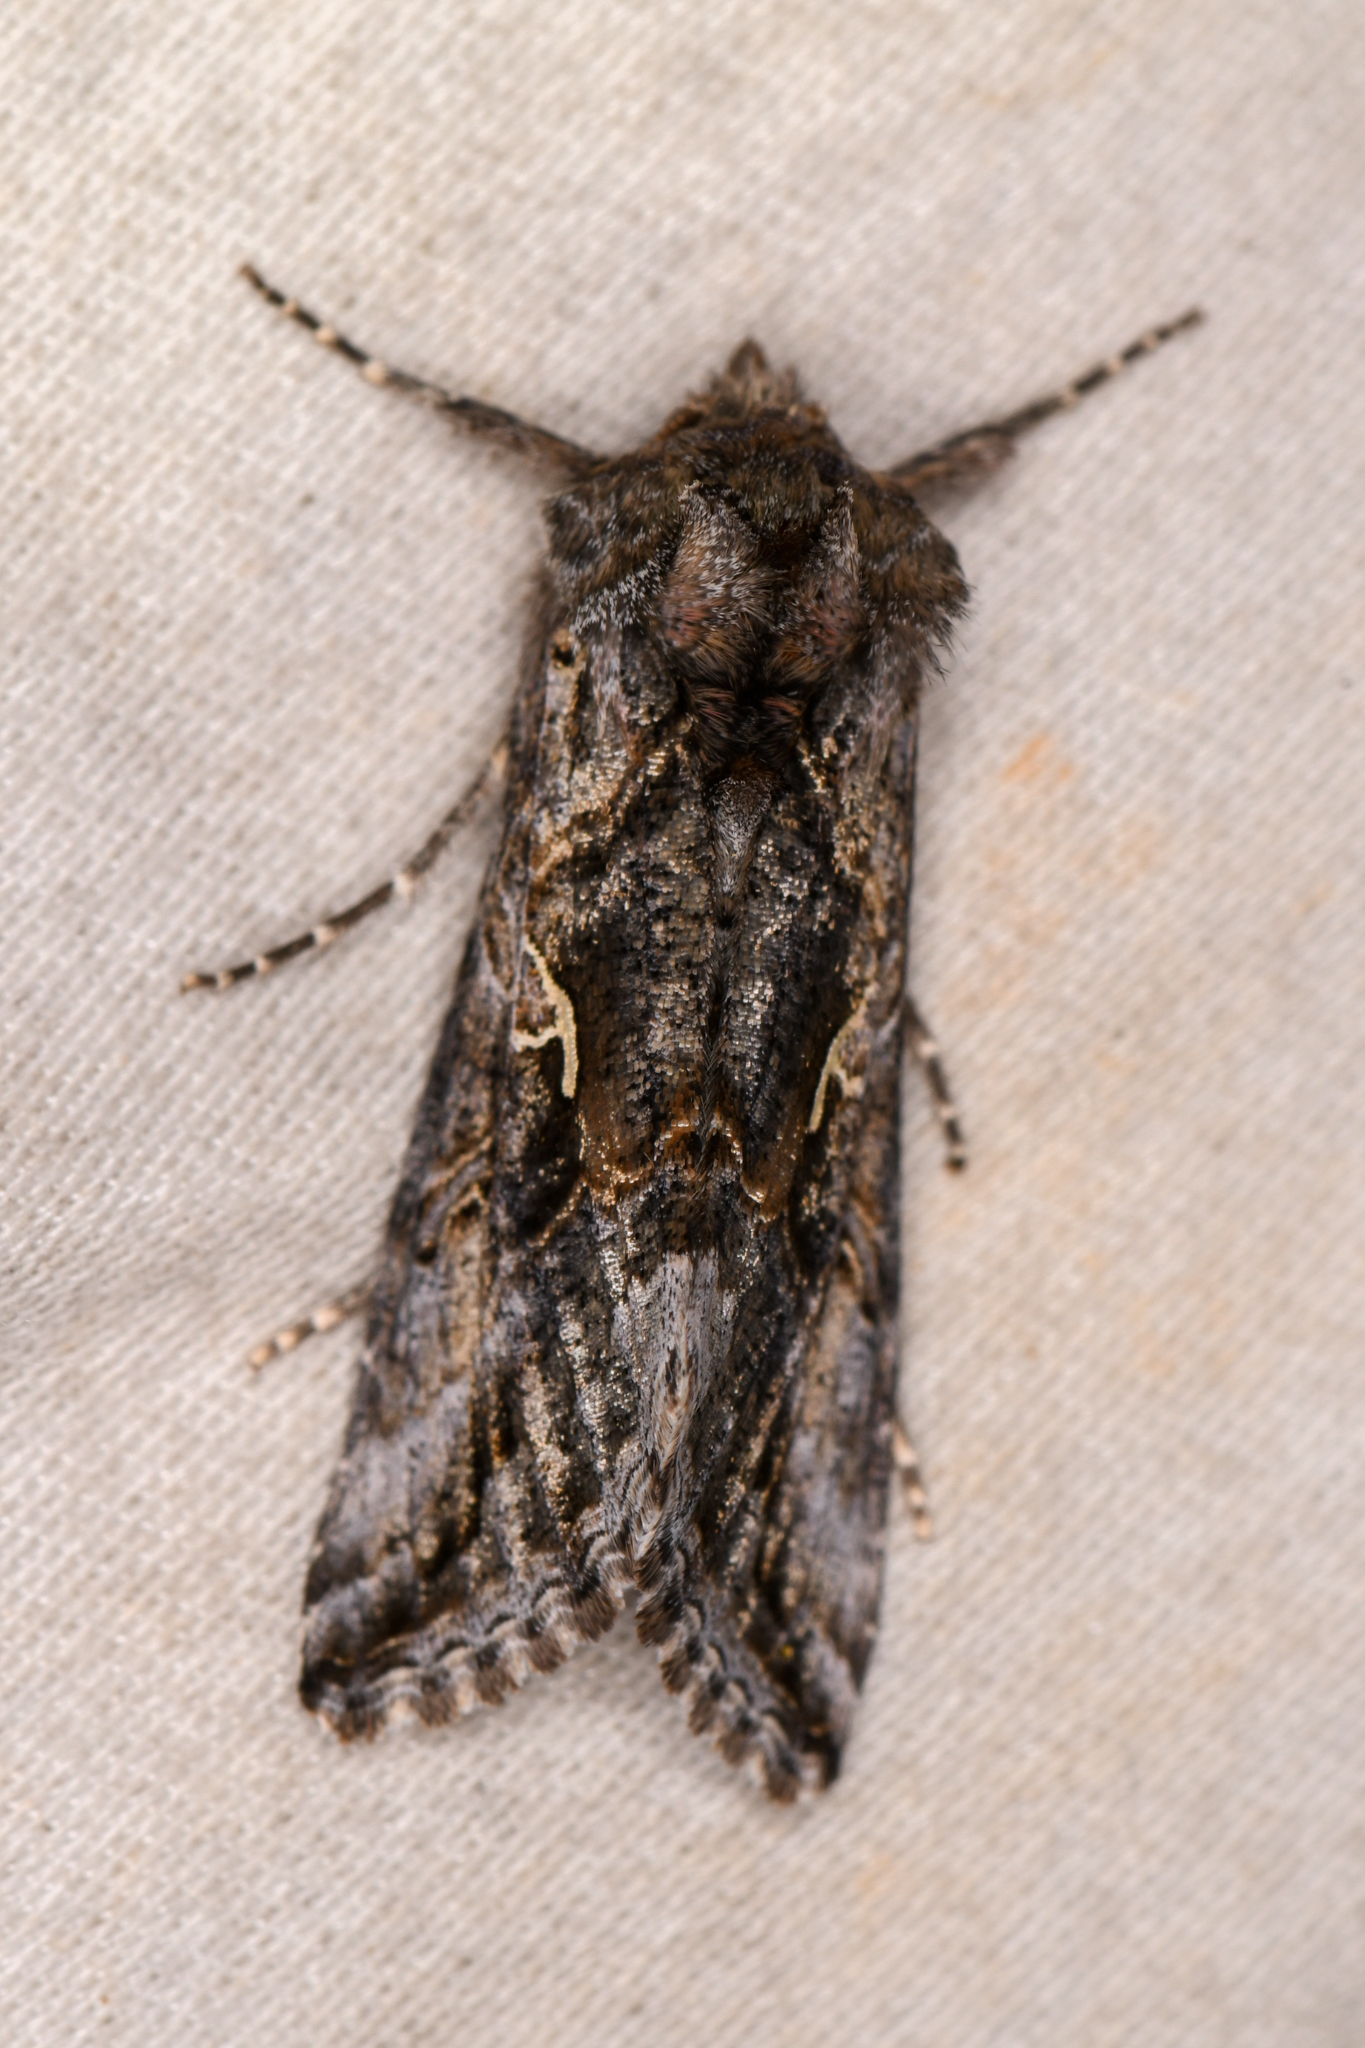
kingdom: Animalia
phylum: Arthropoda
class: Insecta
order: Lepidoptera
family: Noctuidae
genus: Autographa
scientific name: Autographa californica
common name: Alfalfa looper
